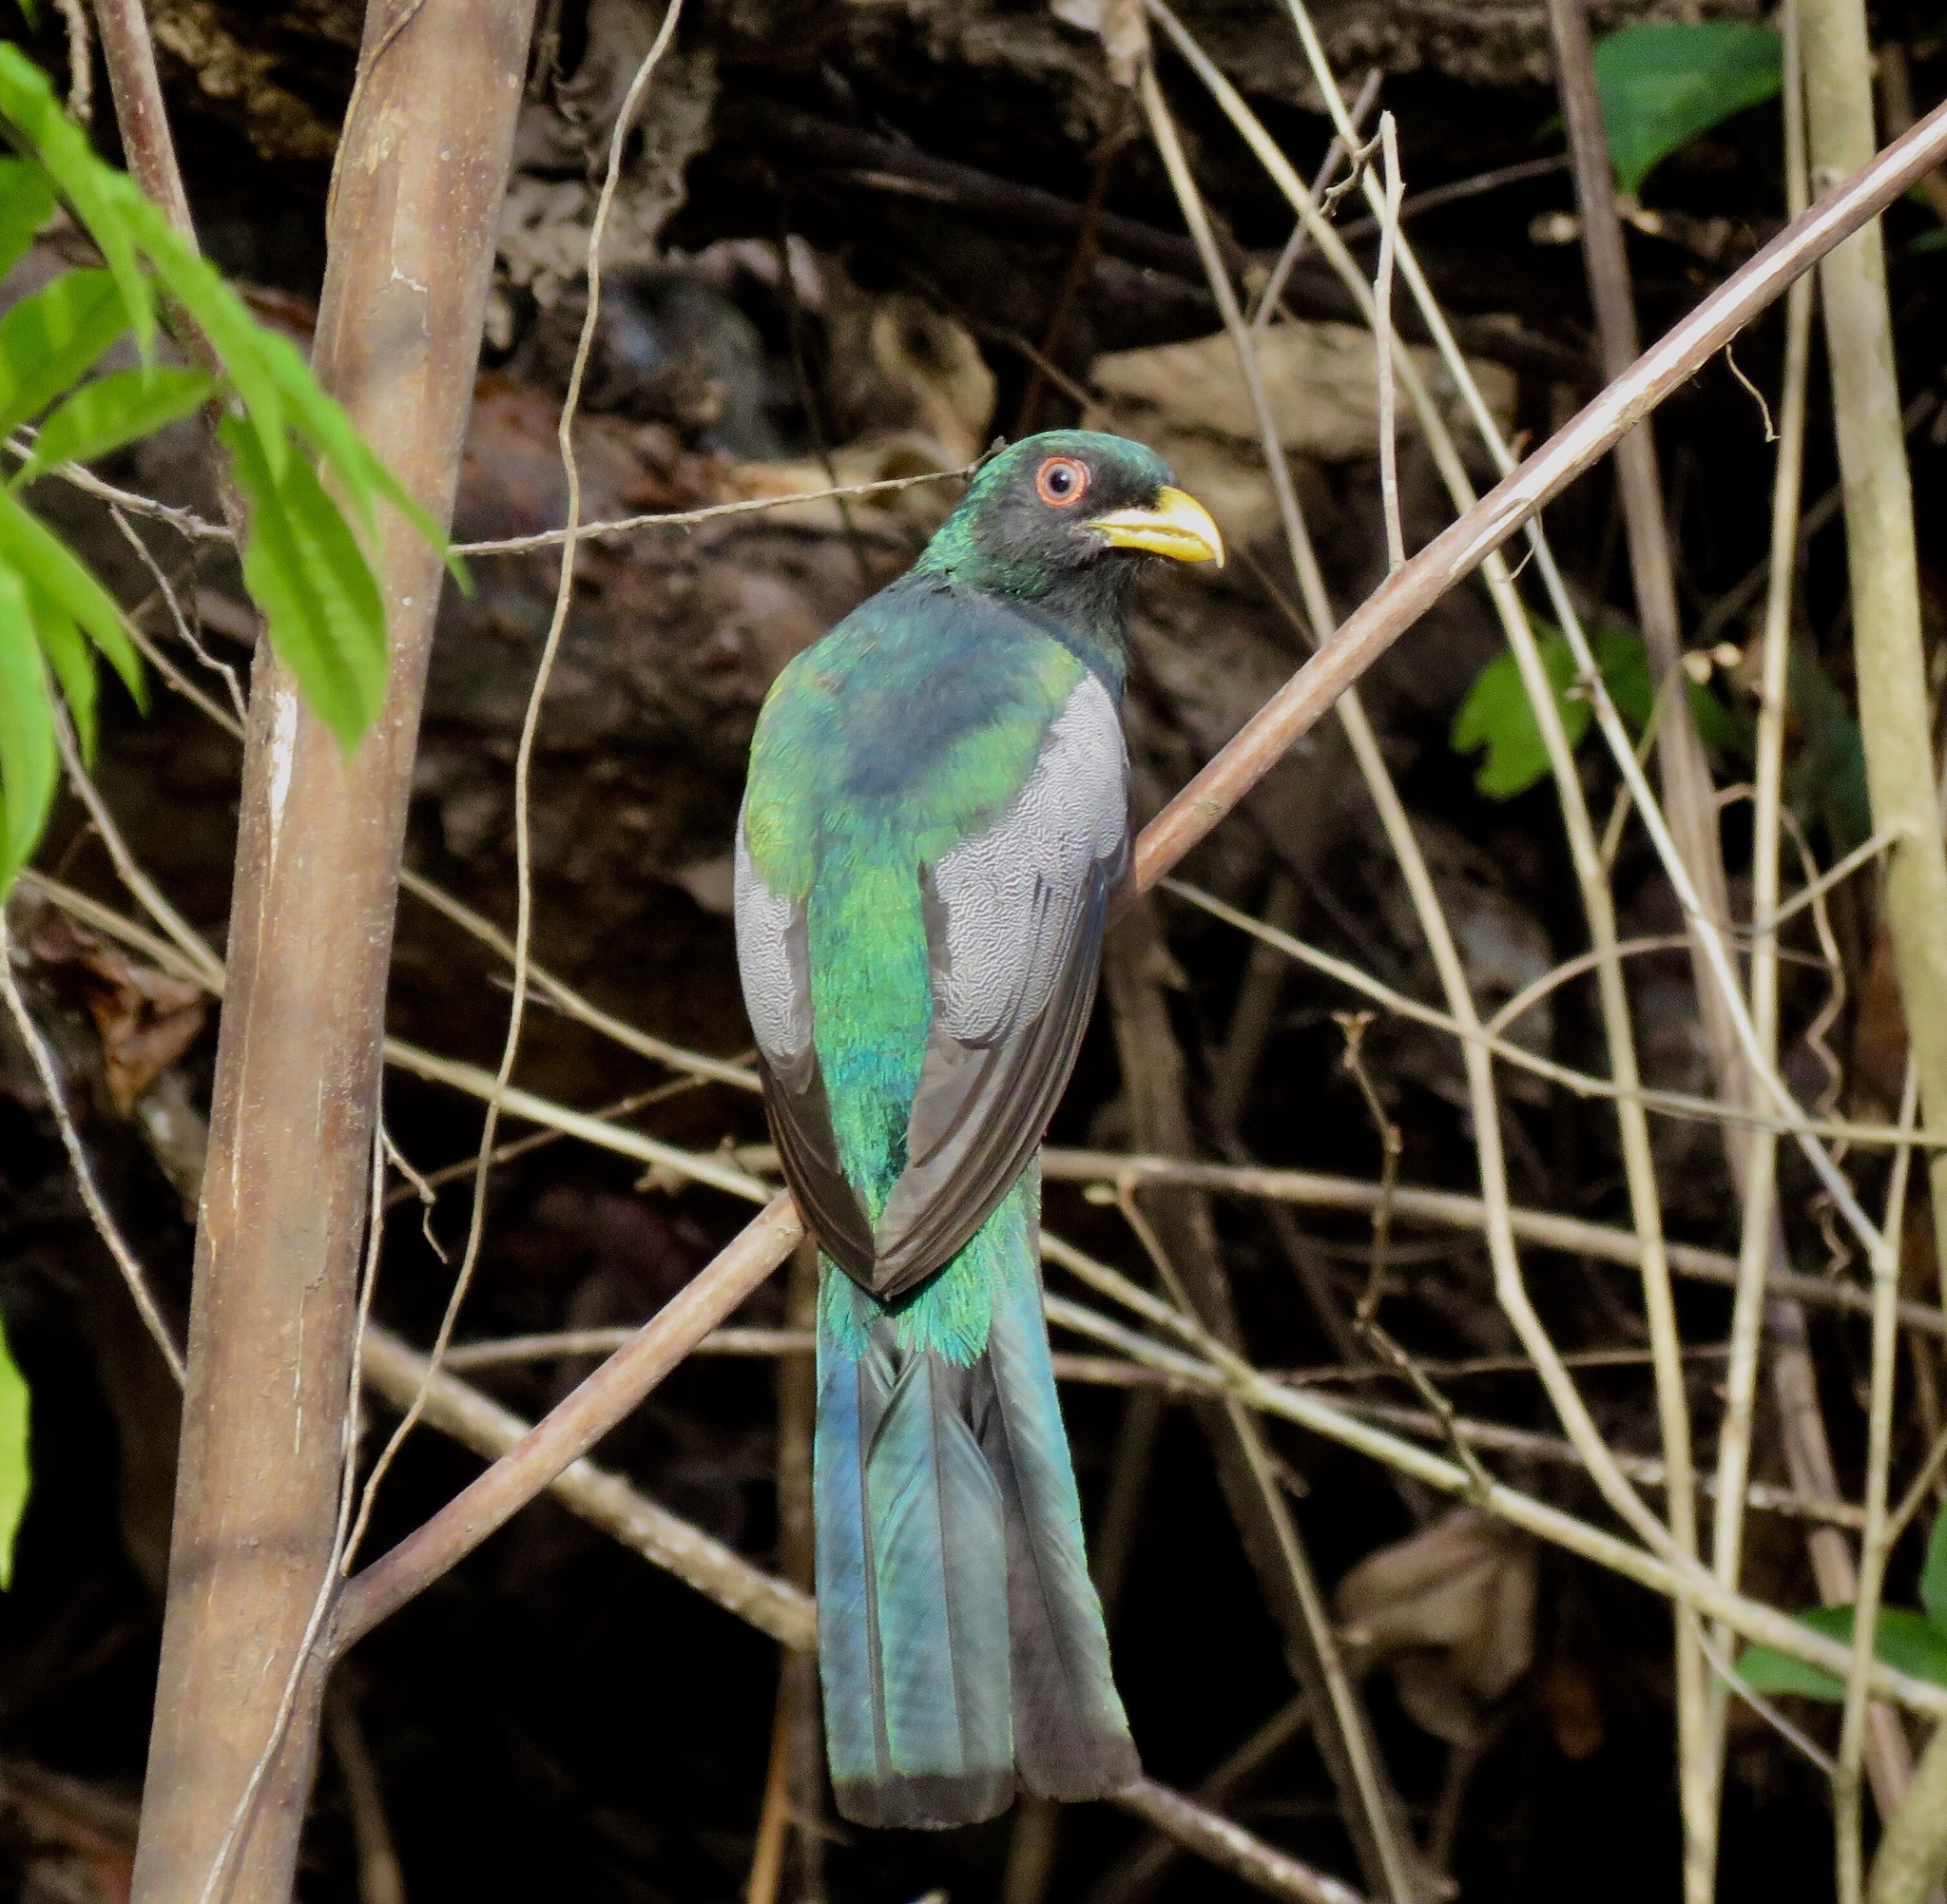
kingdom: Animalia
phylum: Chordata
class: Aves
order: Trogoniformes
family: Trogonidae
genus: Trogon
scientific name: Trogon melanurus
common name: Black-tailed trogon
